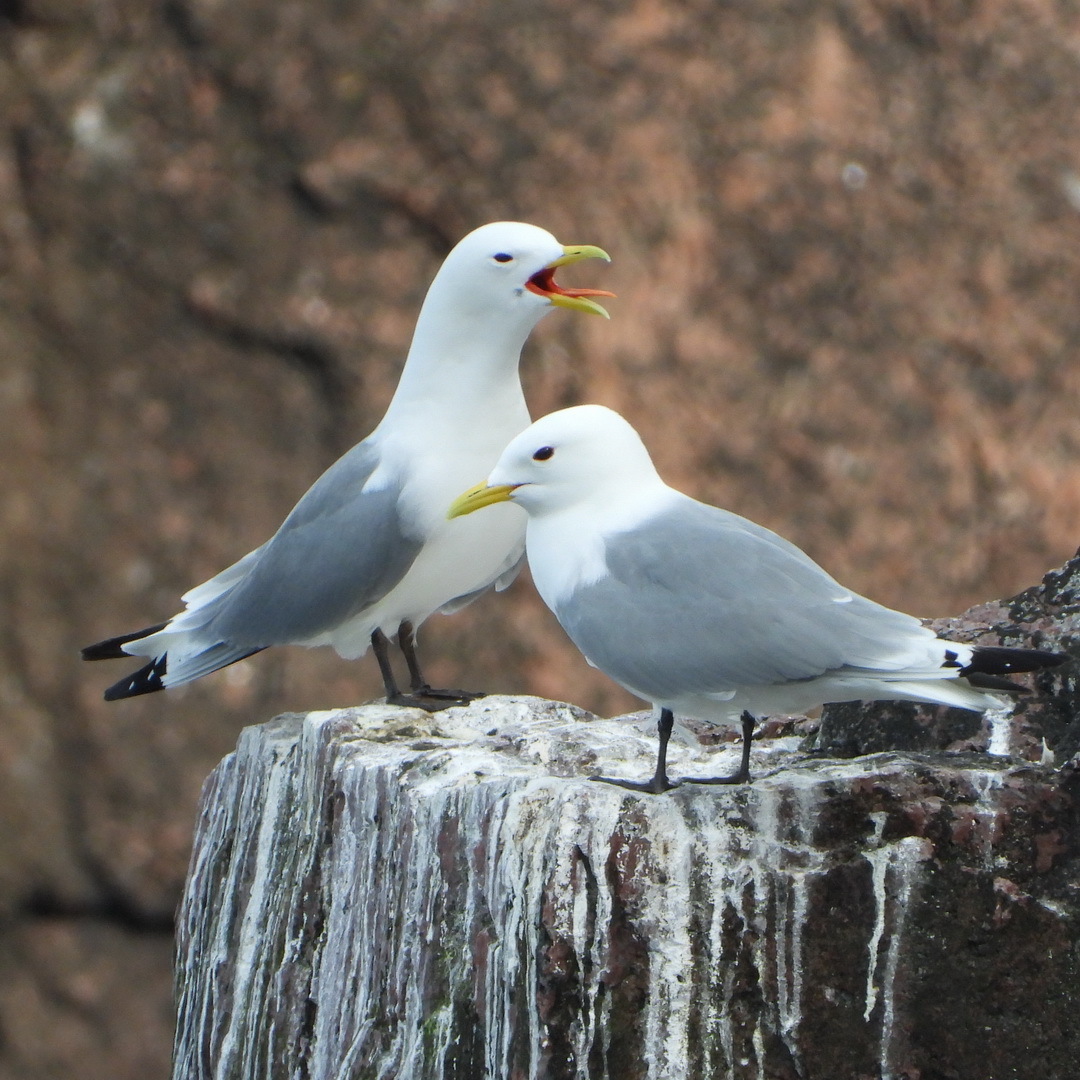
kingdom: Animalia
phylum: Chordata
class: Aves
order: Charadriiformes
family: Laridae
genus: Rissa
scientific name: Rissa tridactyla
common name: Black-legged kittiwake
